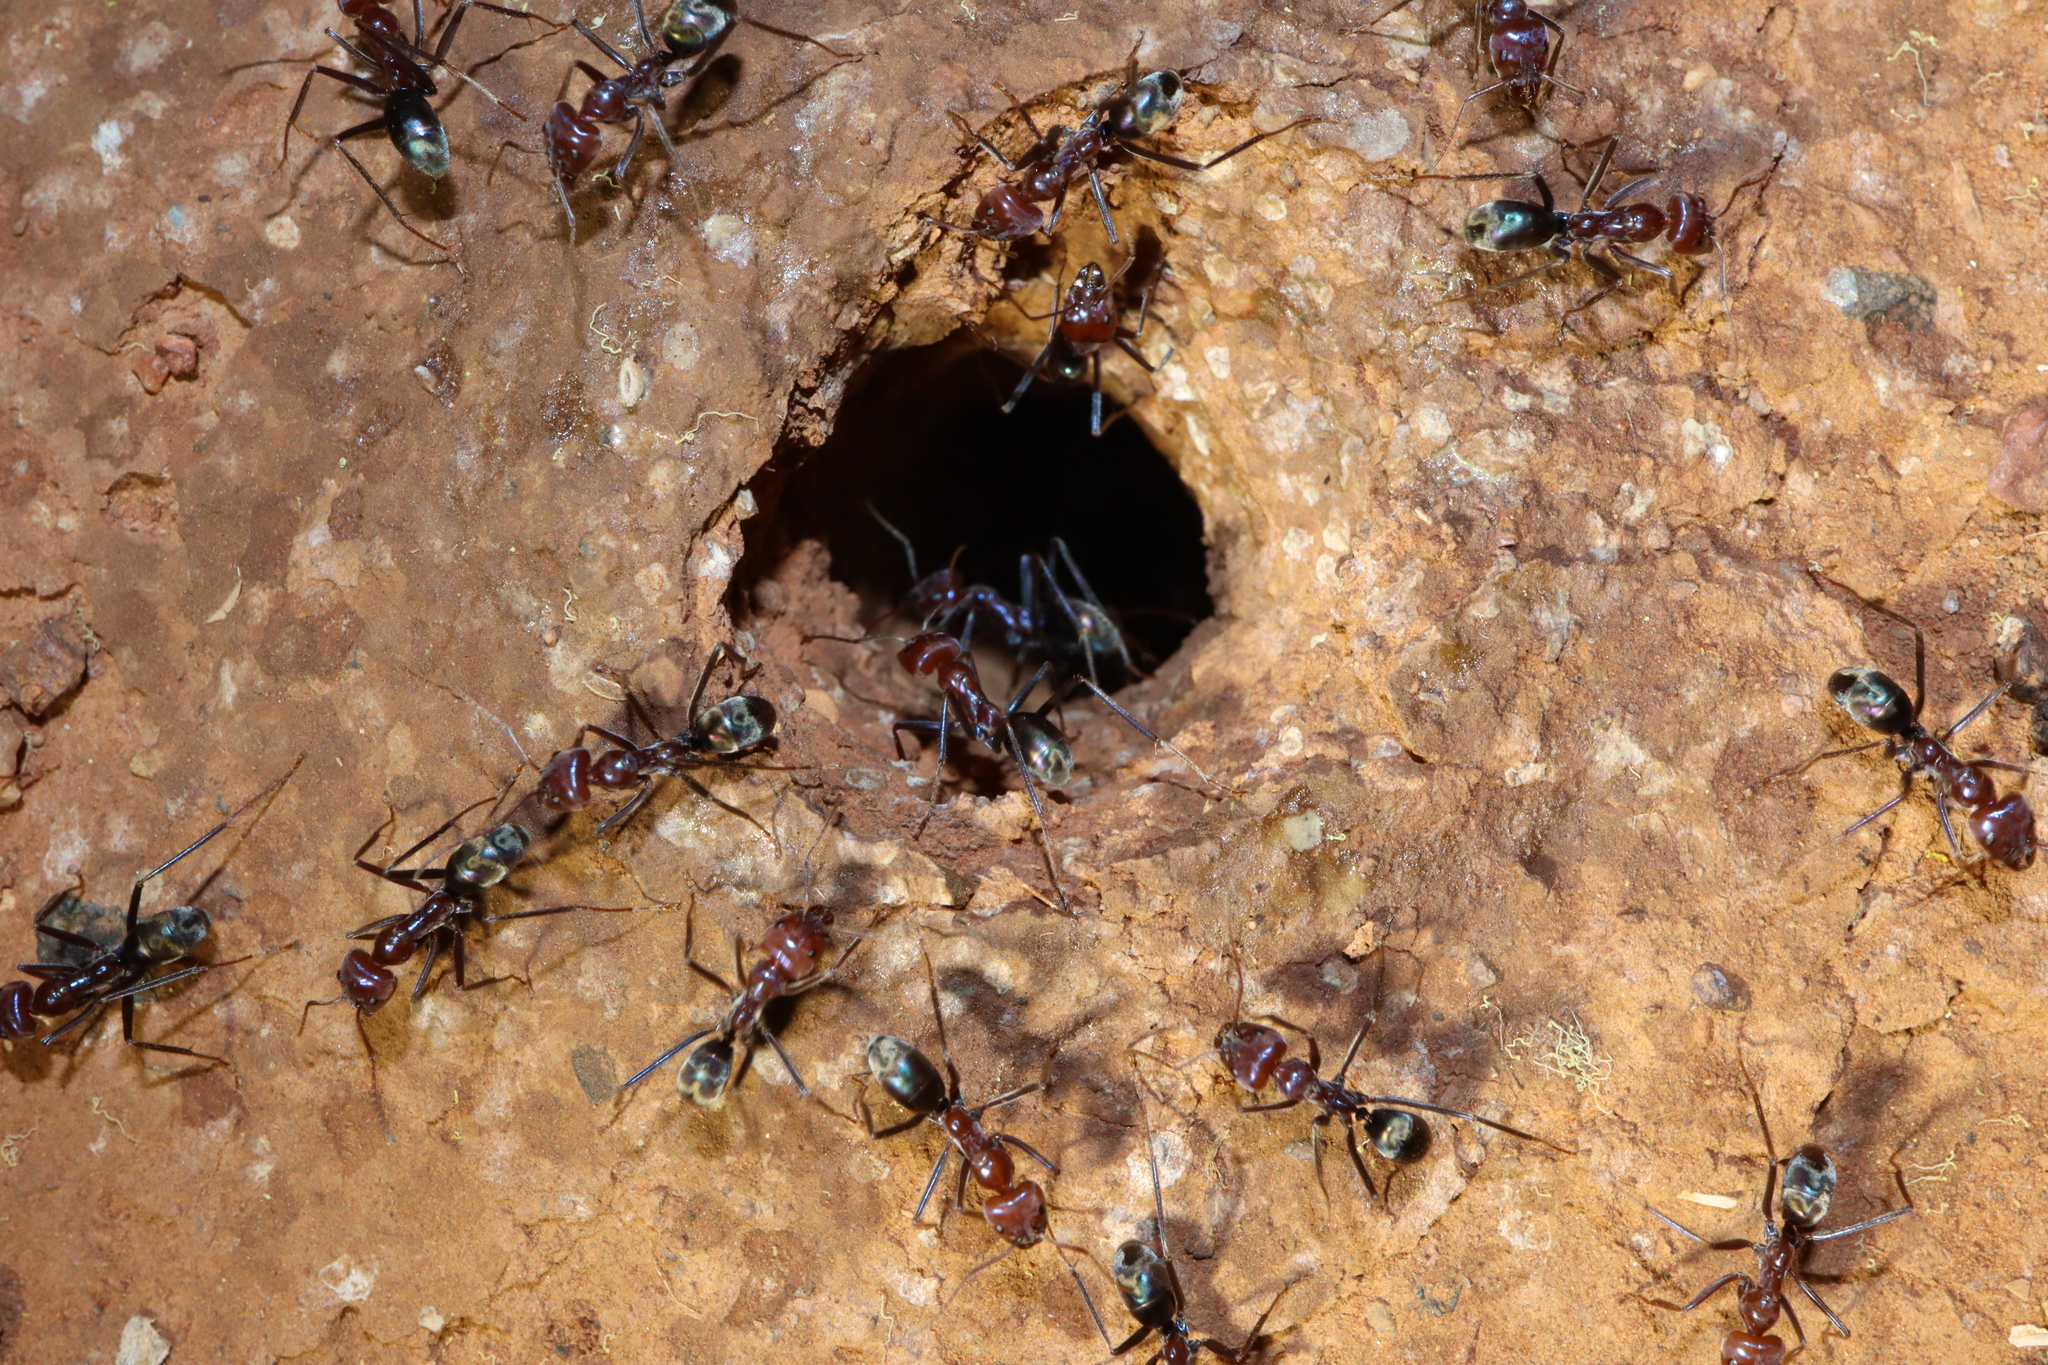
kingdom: Animalia
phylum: Arthropoda
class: Insecta
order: Hymenoptera
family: Formicidae
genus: Iridomyrmex
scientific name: Iridomyrmex purpureus
